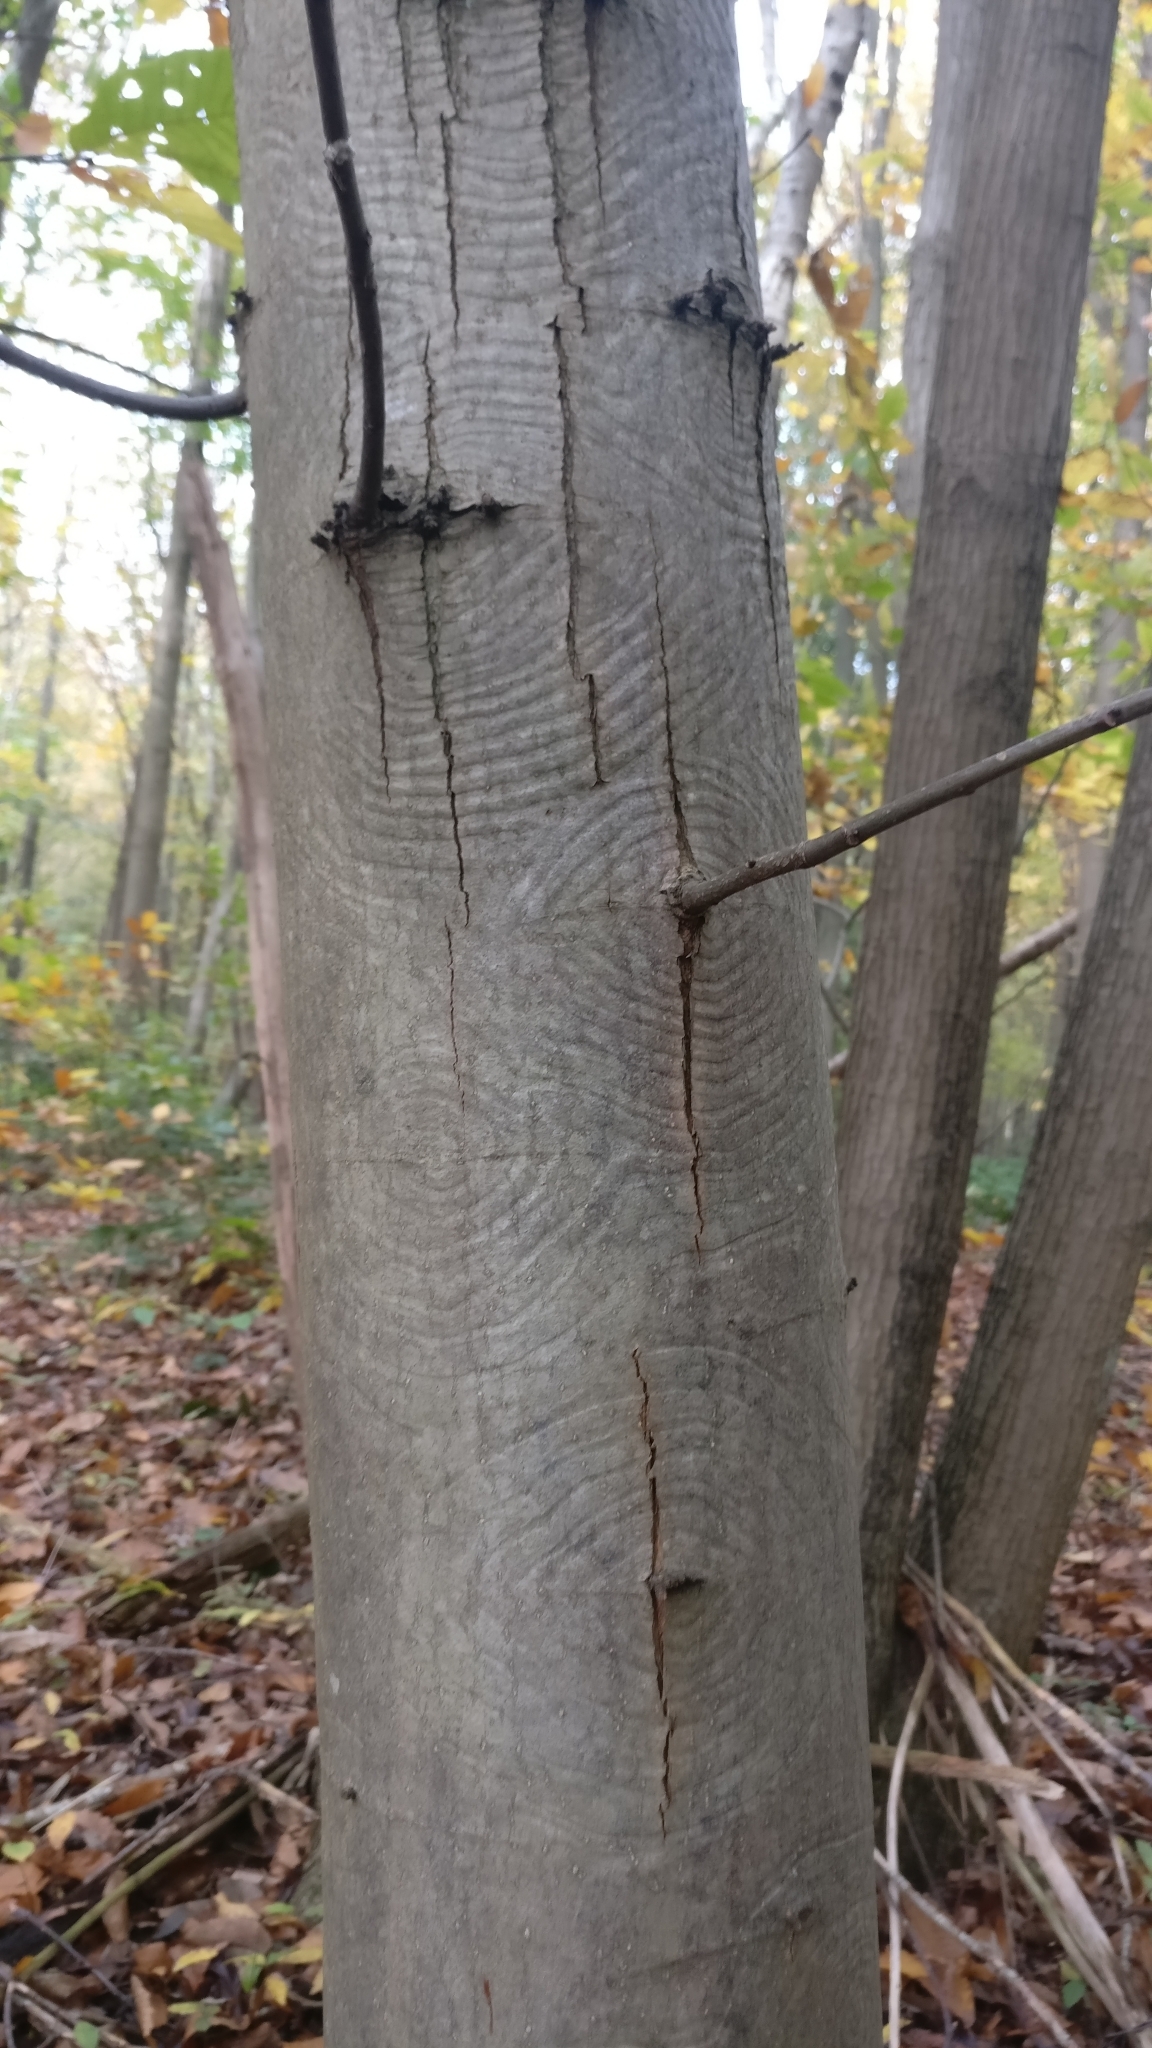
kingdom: Plantae
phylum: Tracheophyta
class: Magnoliopsida
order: Fagales
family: Fagaceae
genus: Castanea
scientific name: Castanea sativa
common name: Sweet chestnut
